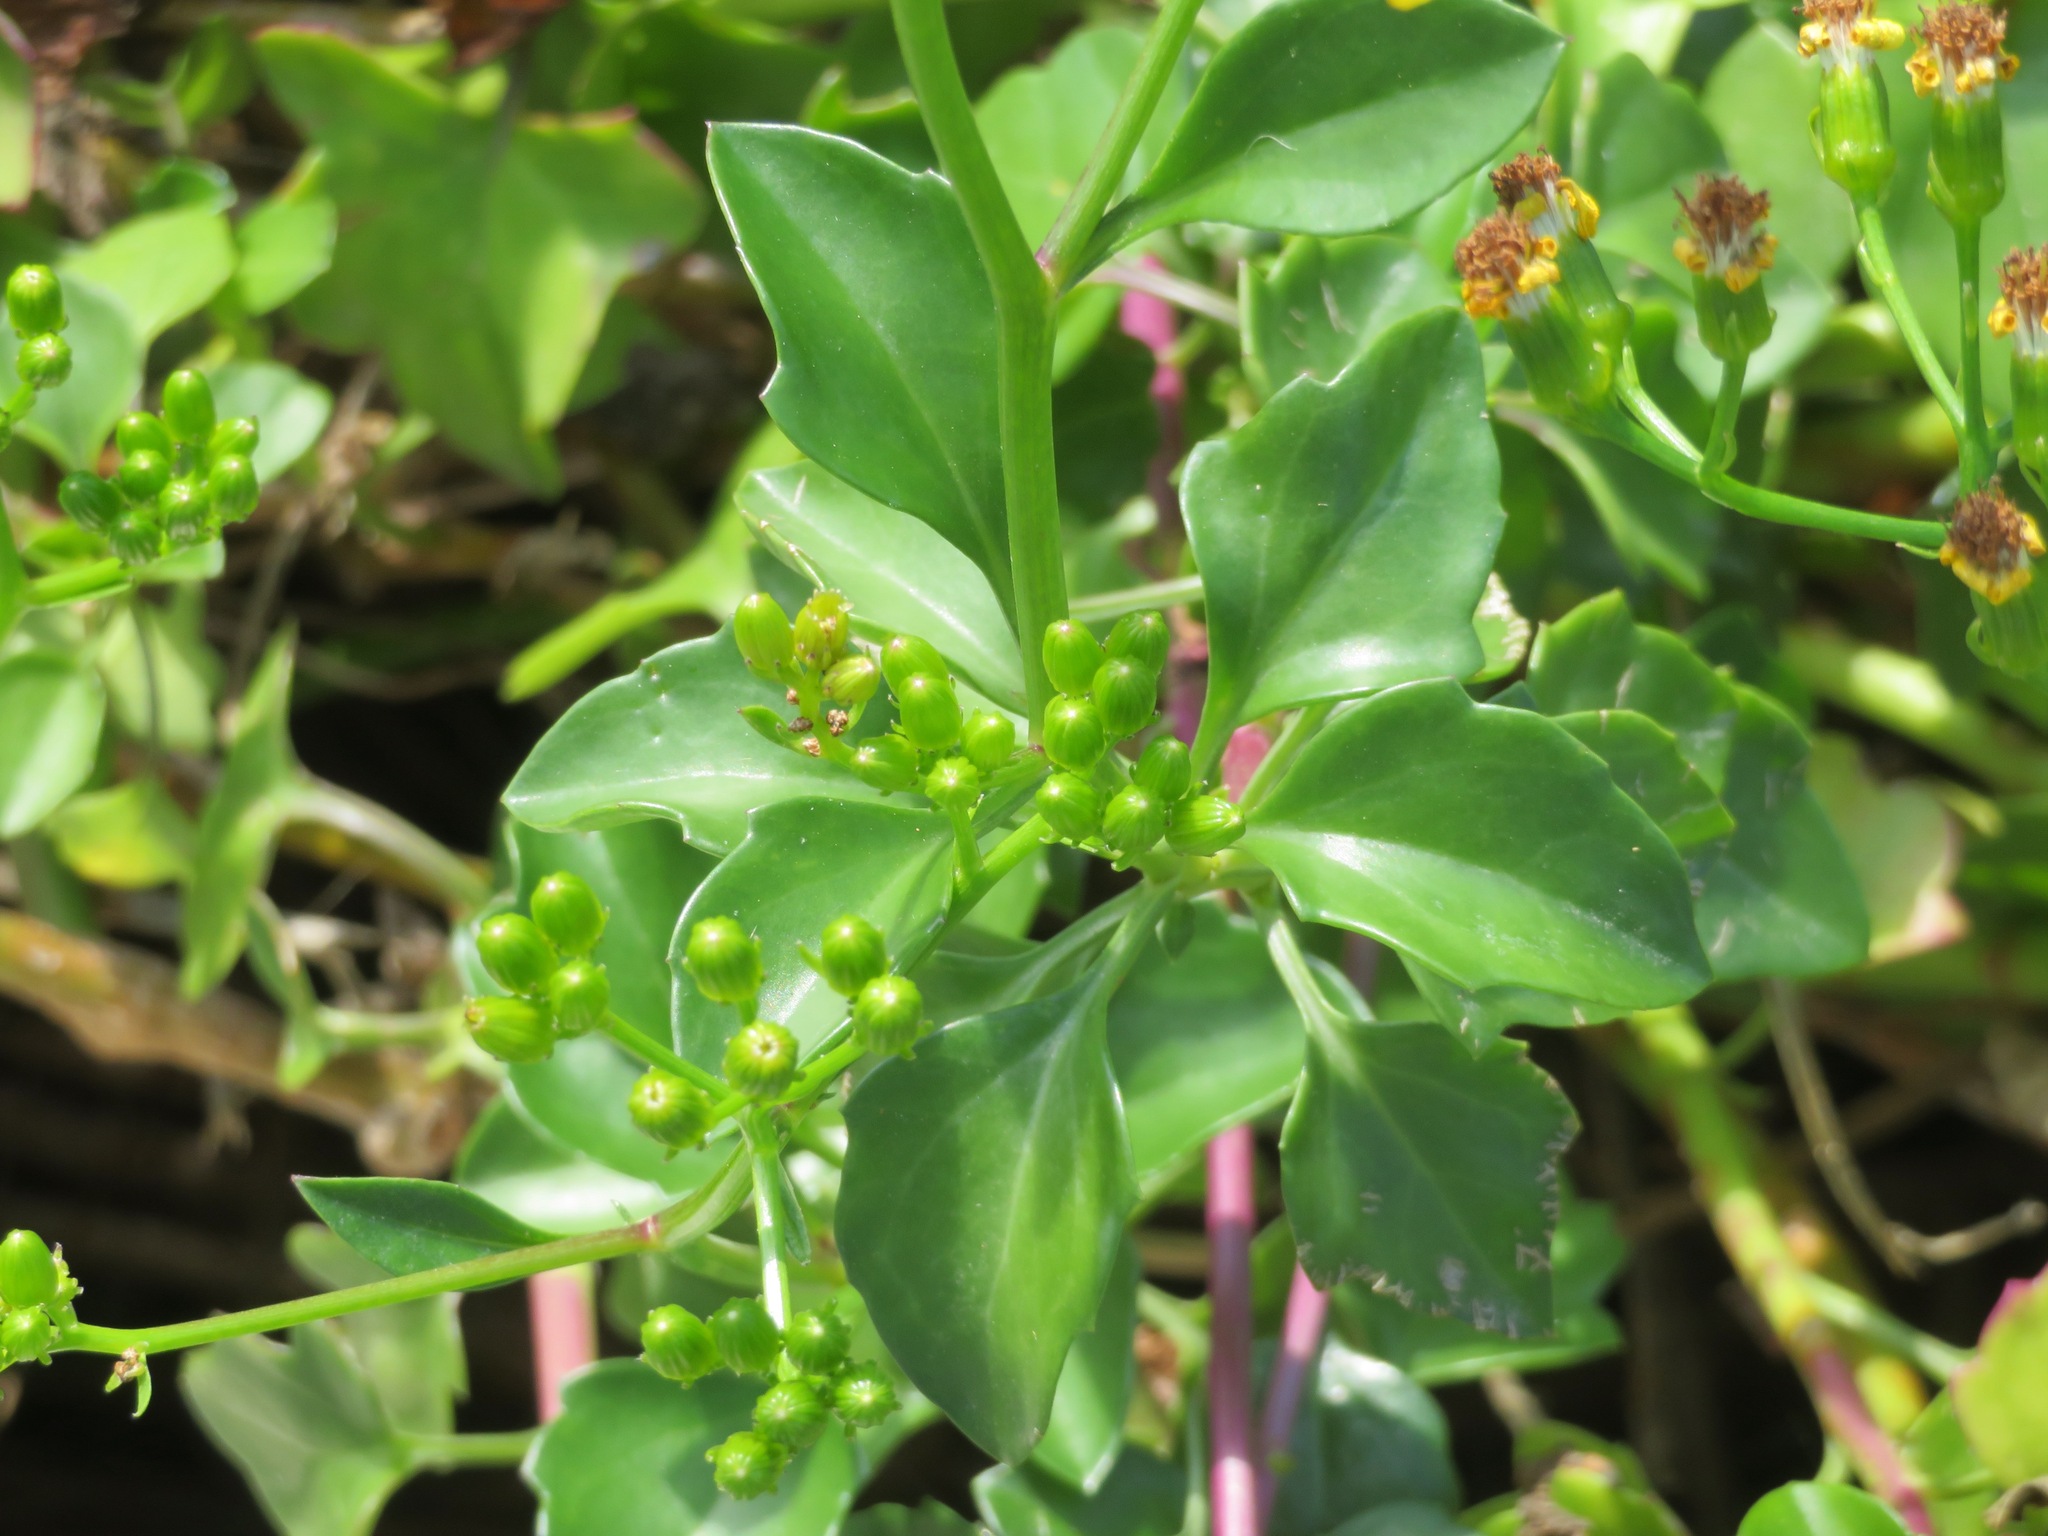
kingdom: Plantae
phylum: Tracheophyta
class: Magnoliopsida
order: Asterales
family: Asteraceae
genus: Senecio
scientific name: Senecio angulatus
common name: Climbing groundsel
